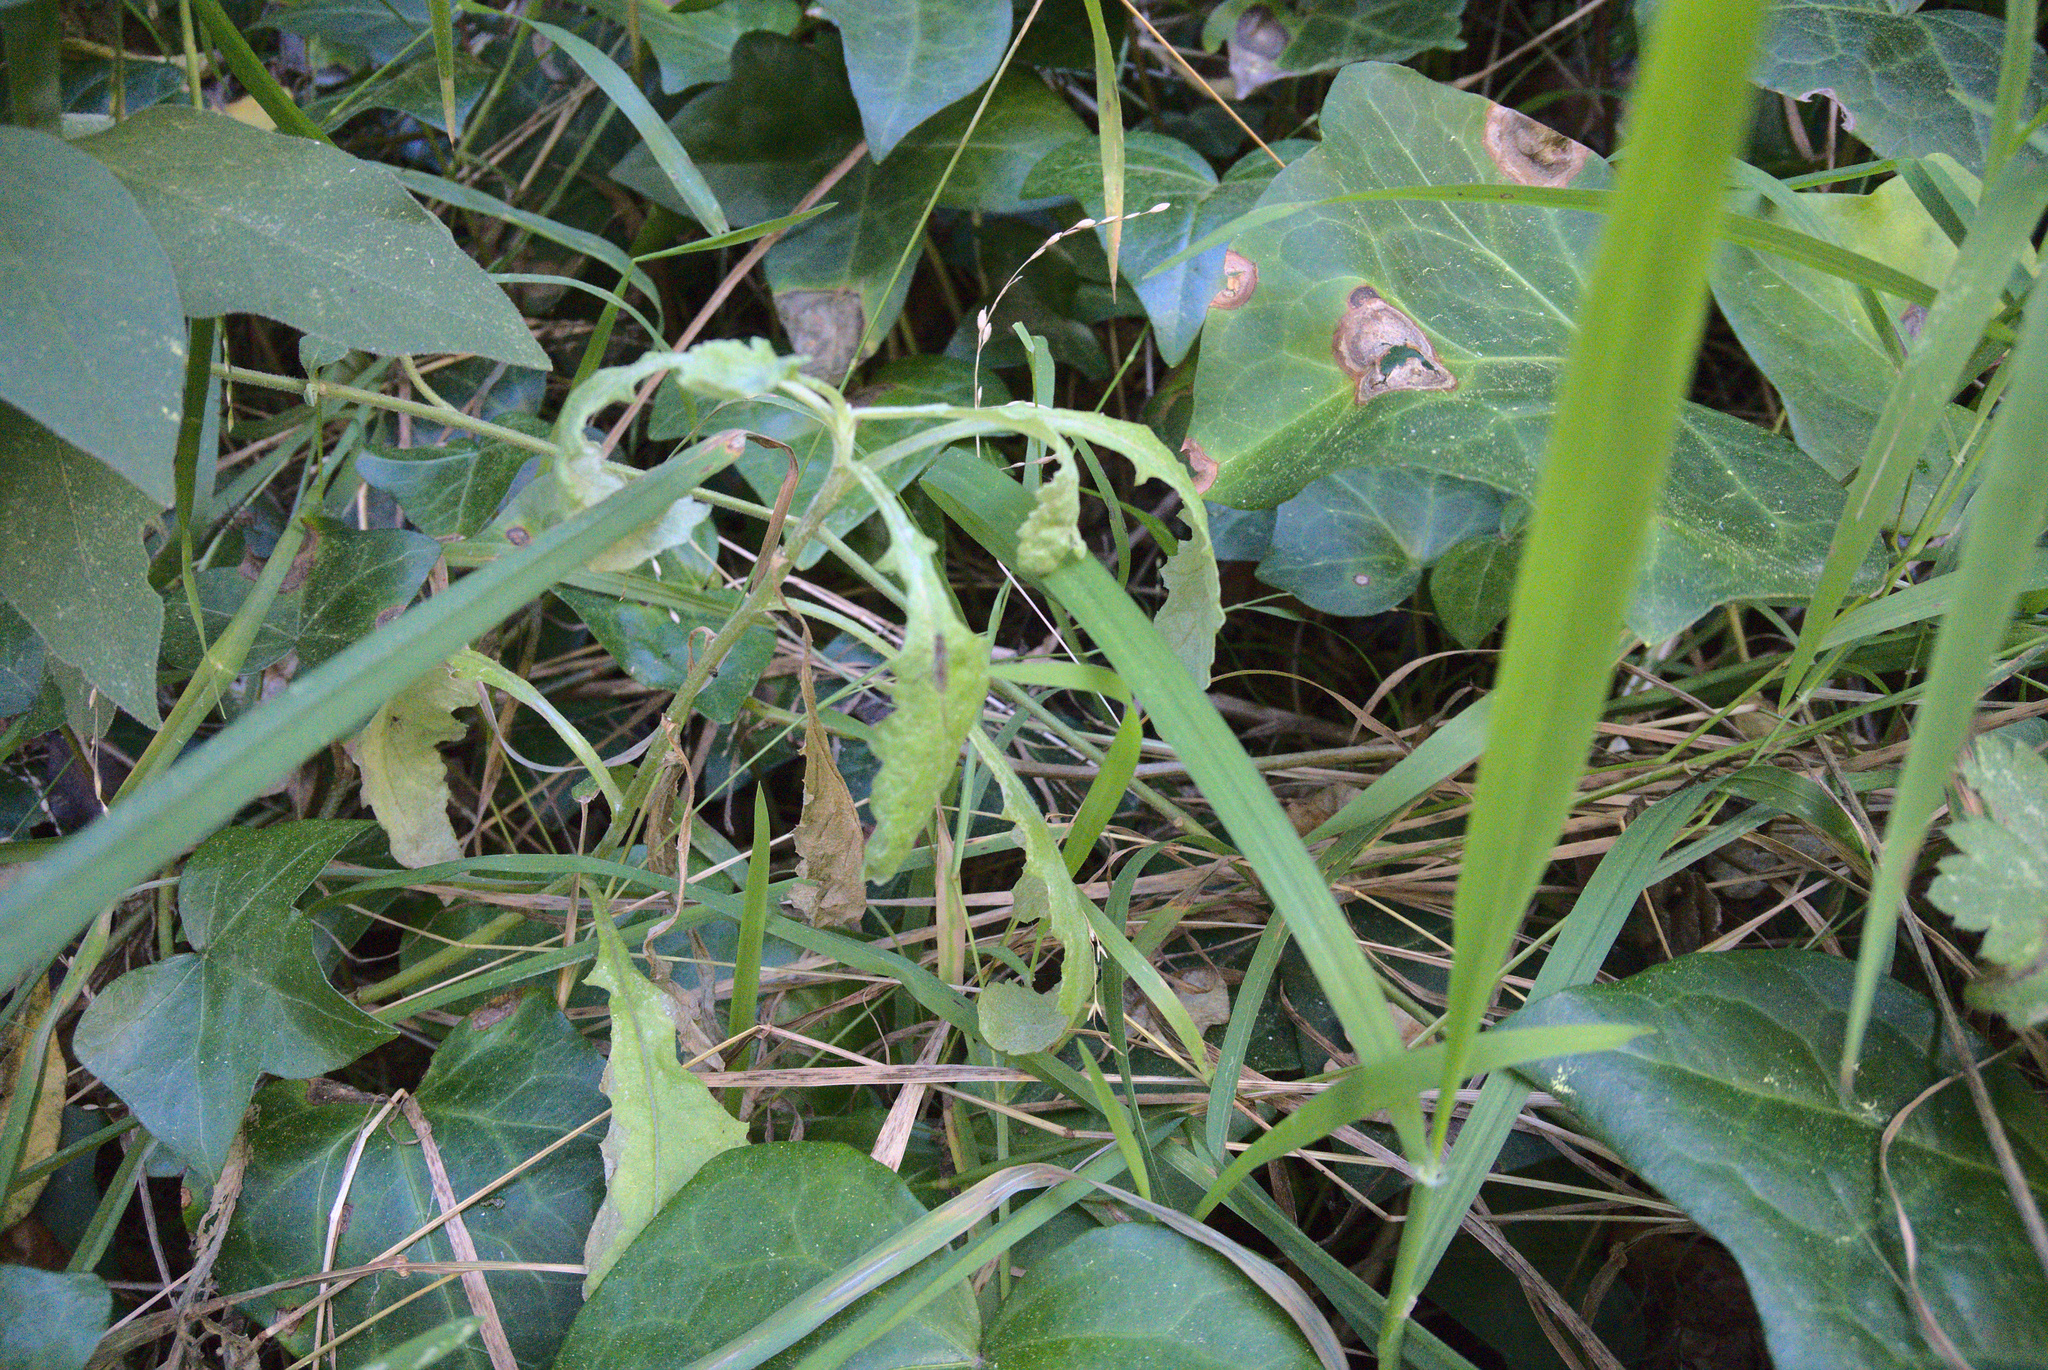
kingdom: Plantae
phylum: Tracheophyta
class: Magnoliopsida
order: Asterales
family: Asteraceae
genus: Senecio
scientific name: Senecio glomeratus
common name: Cutleaf burnweed
